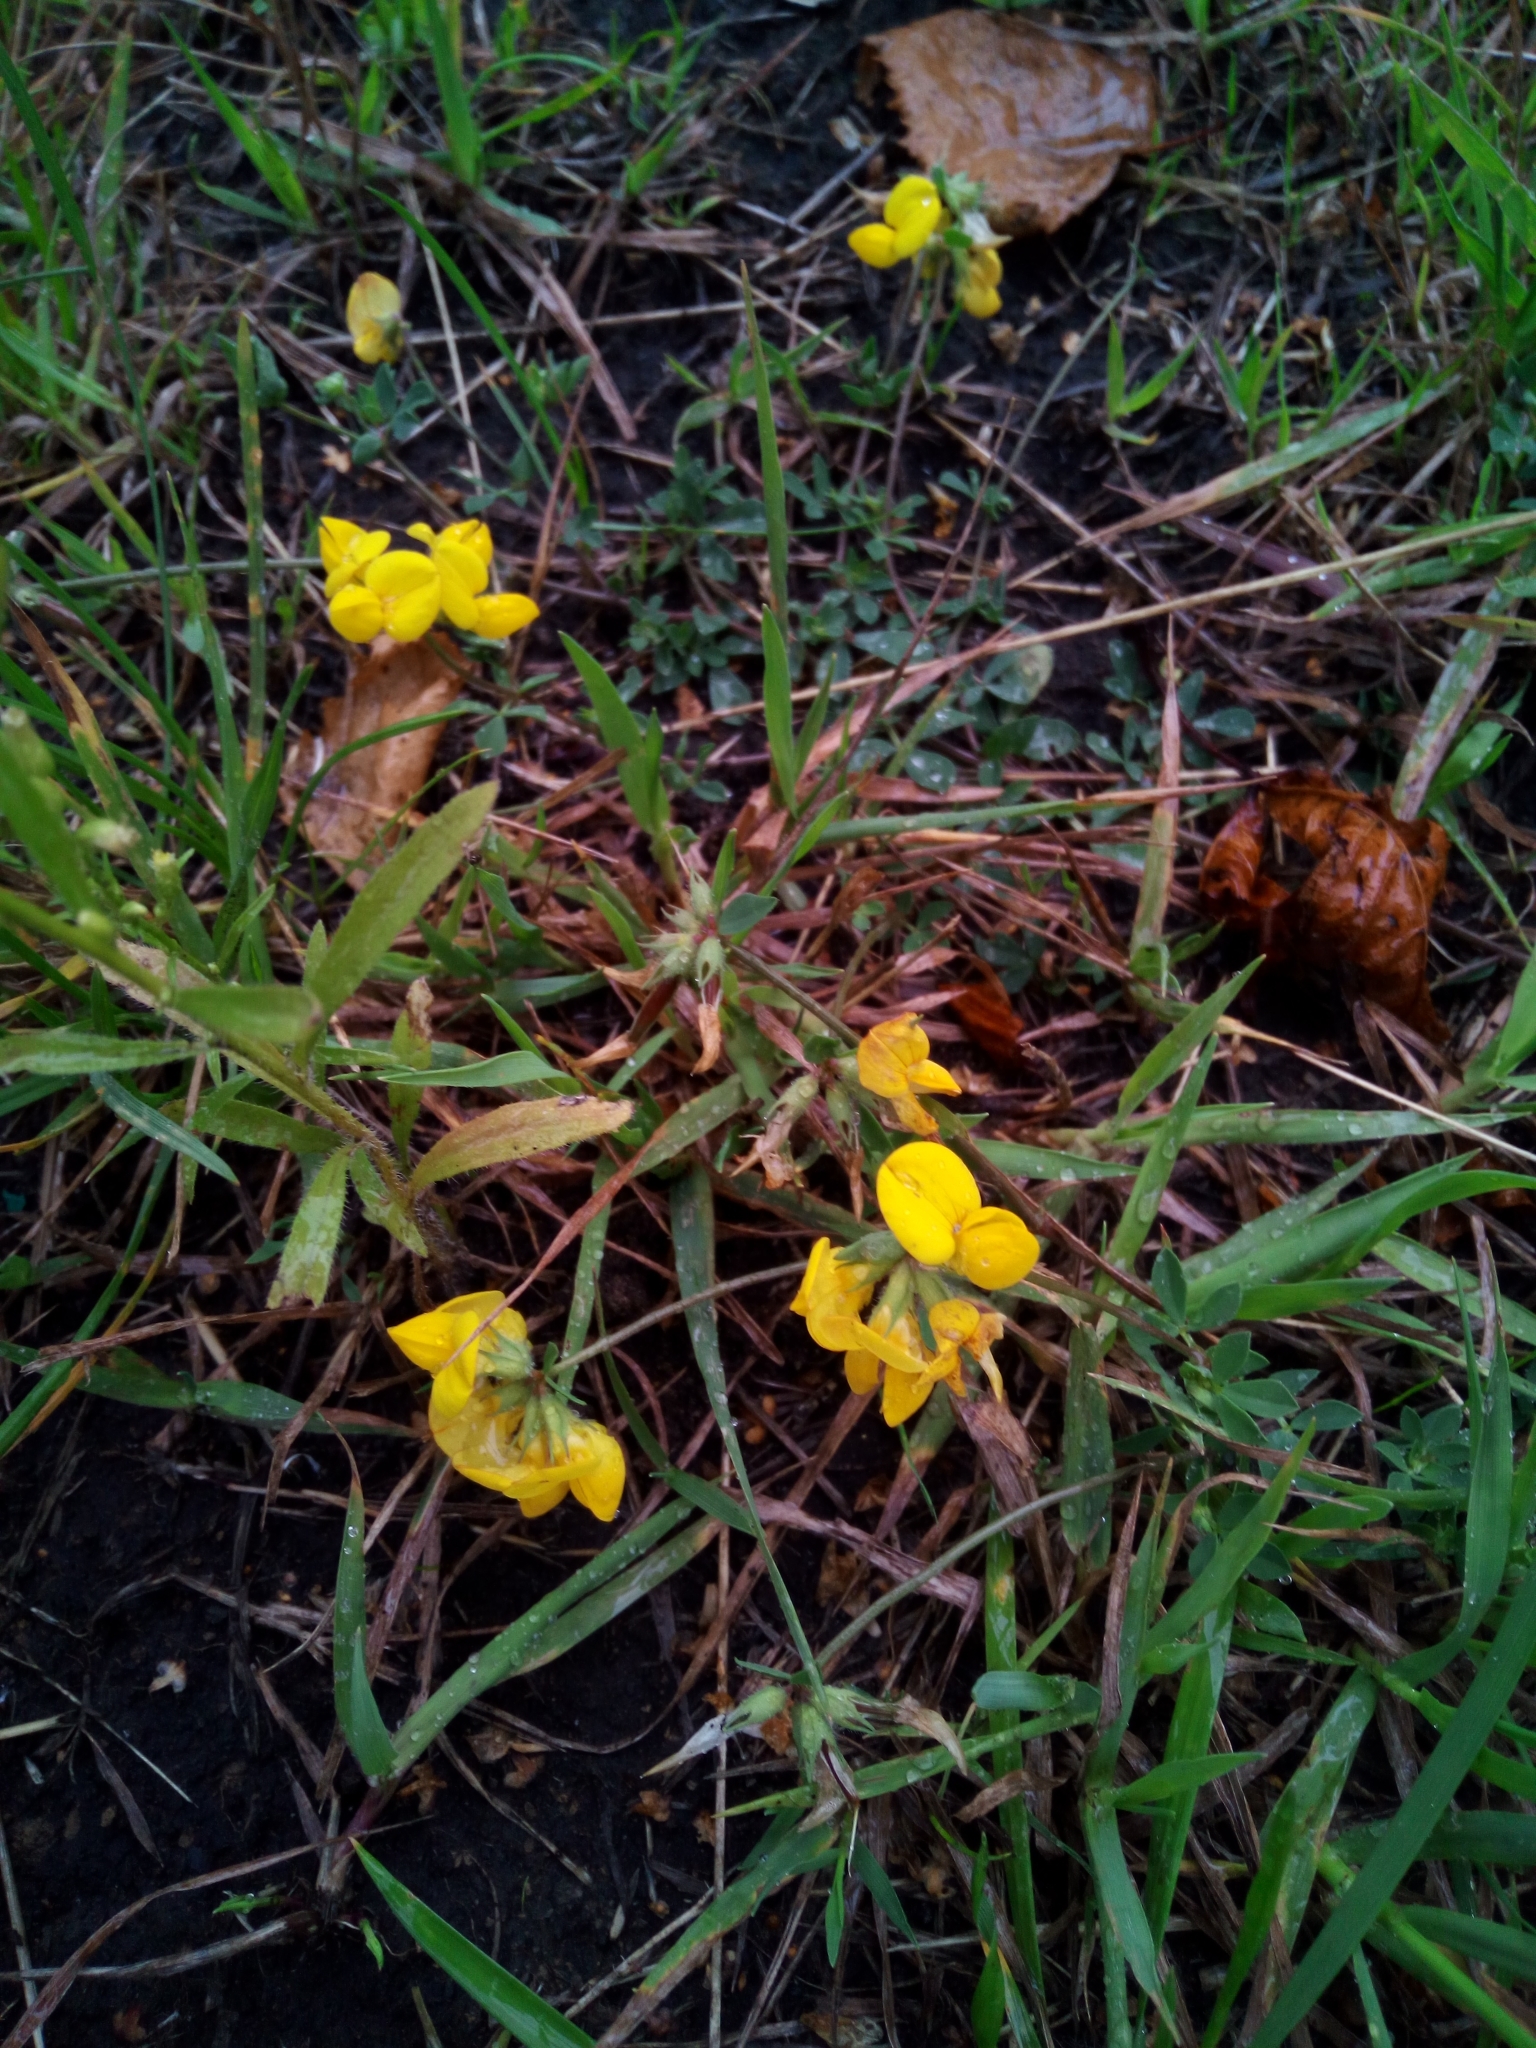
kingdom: Plantae
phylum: Tracheophyta
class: Magnoliopsida
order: Fabales
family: Fabaceae
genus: Lotus
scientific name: Lotus corniculatus
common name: Common bird's-foot-trefoil
